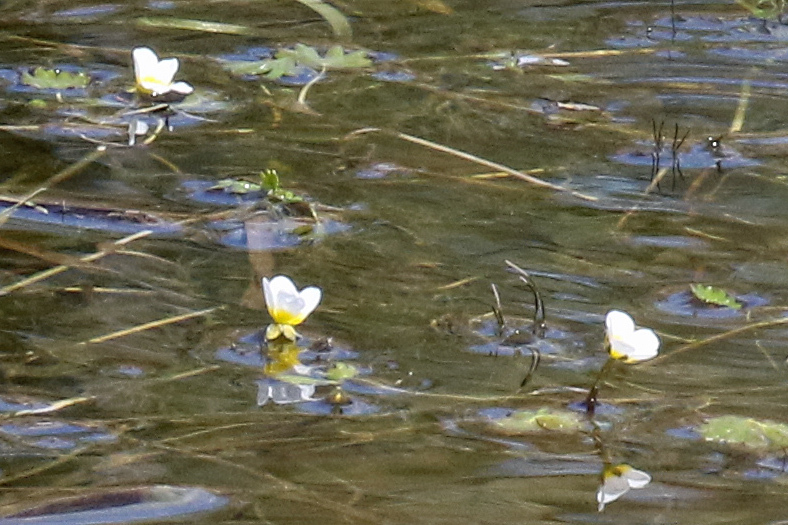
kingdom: Plantae
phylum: Tracheophyta
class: Magnoliopsida
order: Ranunculales
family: Ranunculaceae
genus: Ranunculus
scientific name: Ranunculus aquatilis
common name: Common water-crowfoot
